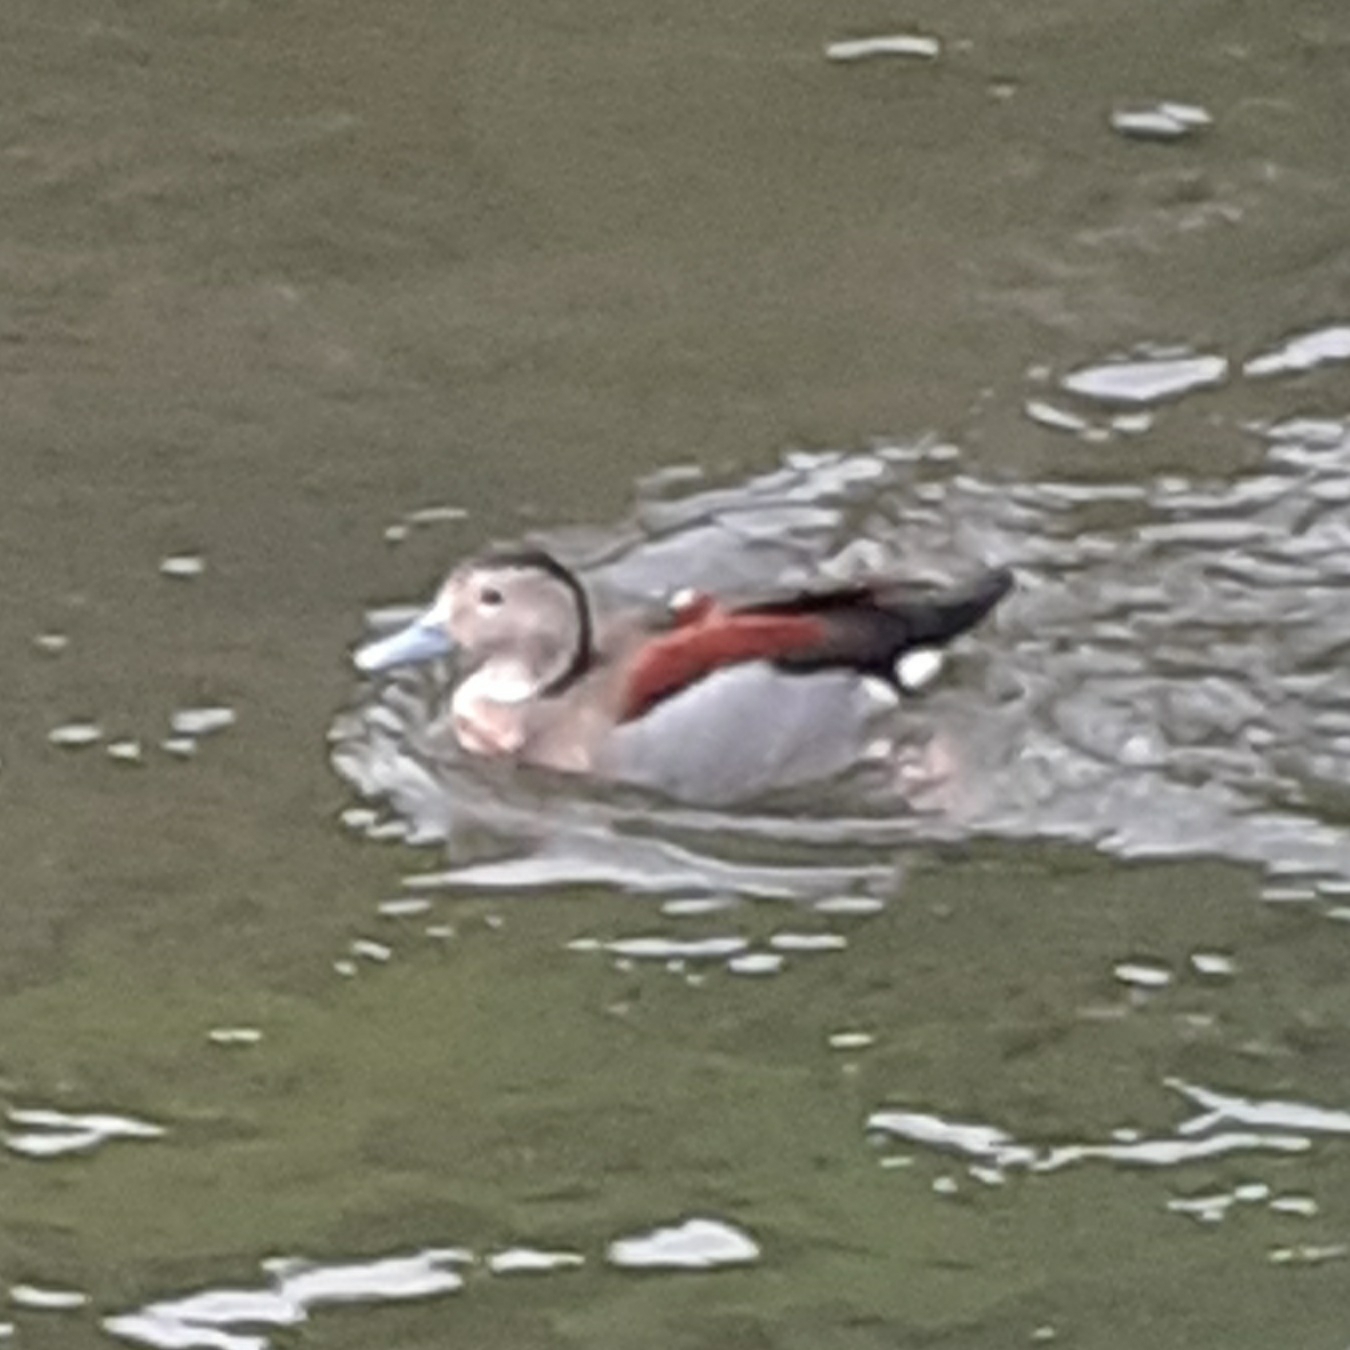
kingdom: Animalia
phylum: Chordata
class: Aves
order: Anseriformes
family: Anatidae
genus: Callonetta
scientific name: Callonetta leucophrys
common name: Ringed teal
